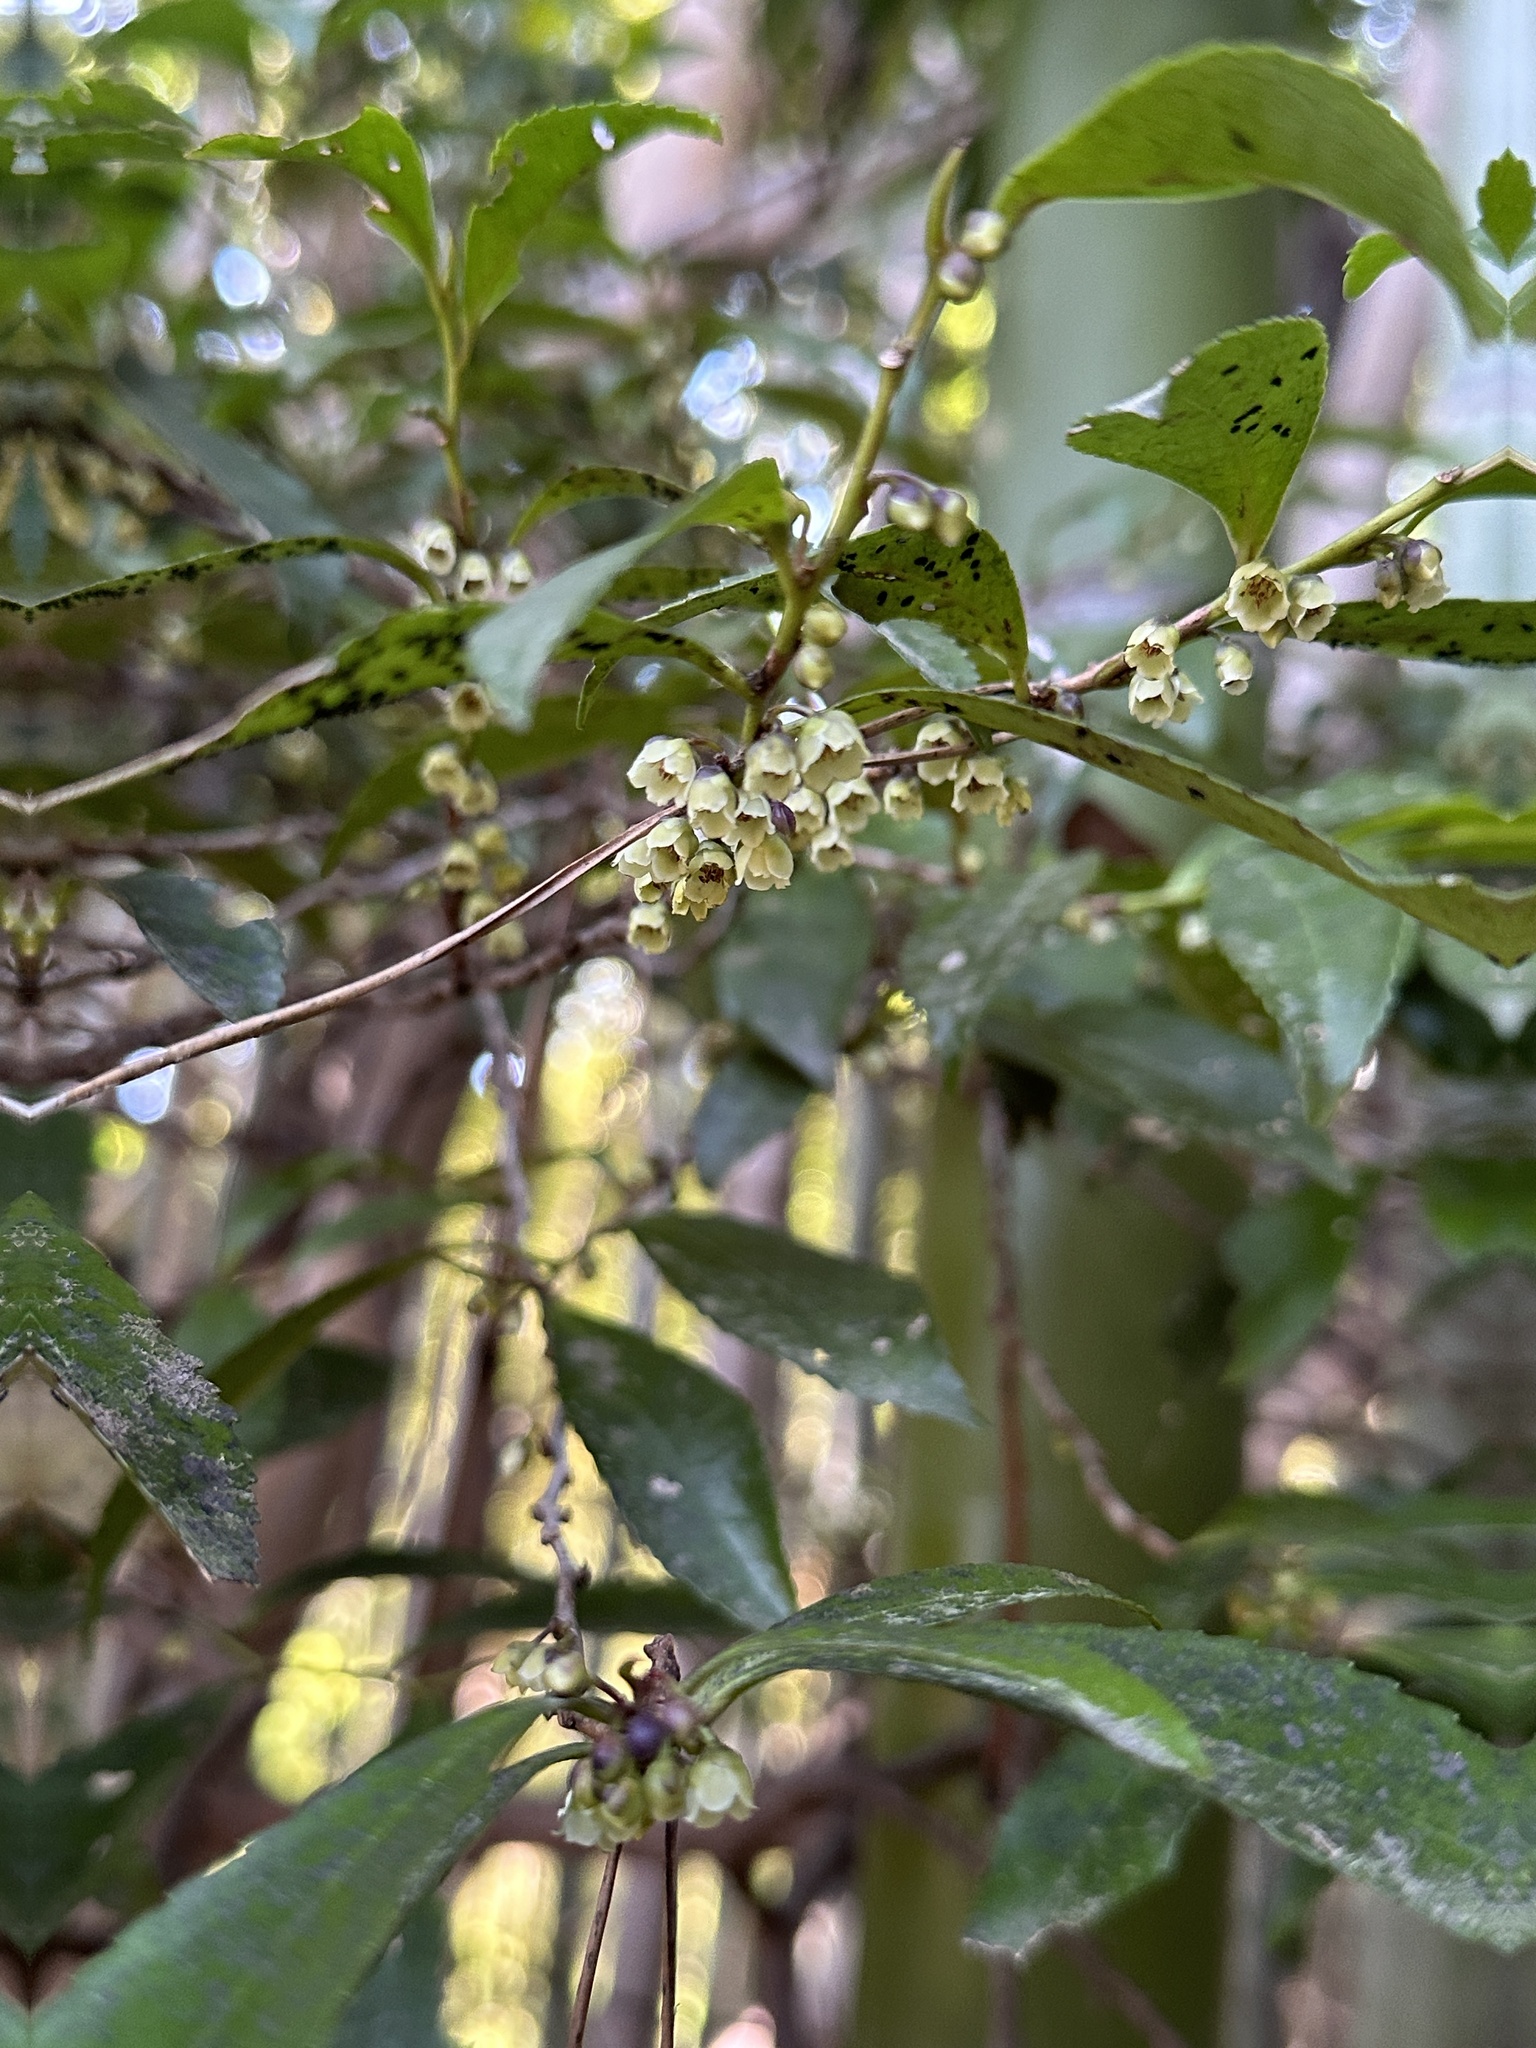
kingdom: Plantae
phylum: Tracheophyta
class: Magnoliopsida
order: Ericales
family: Pentaphylacaceae
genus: Eurya
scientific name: Eurya japonica
